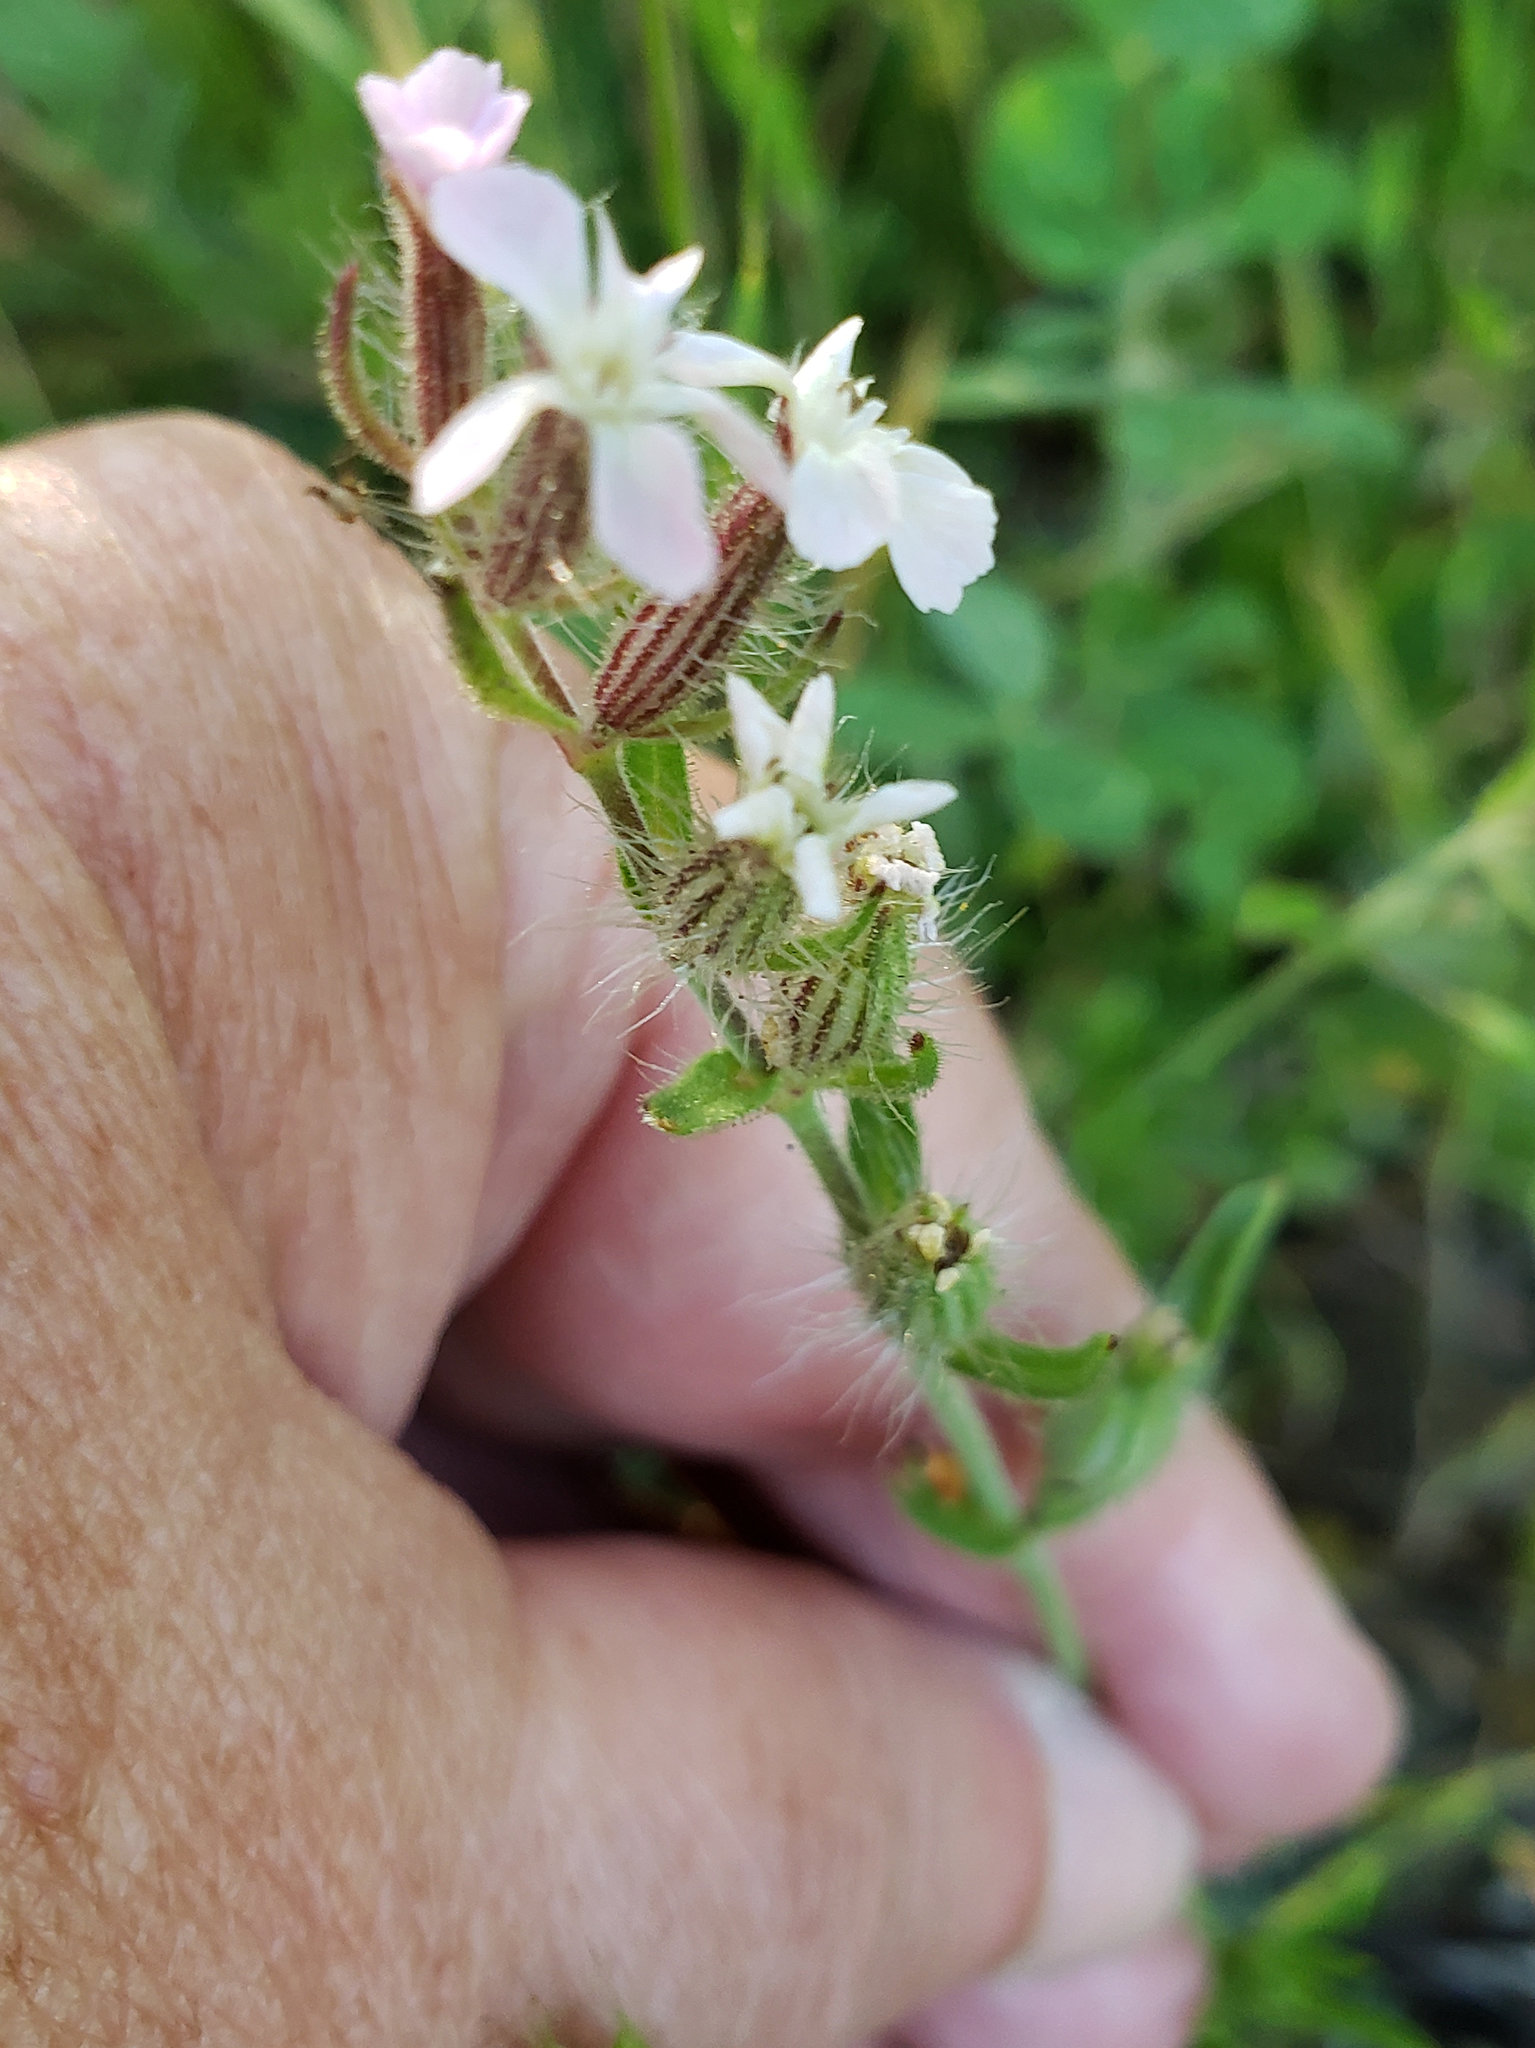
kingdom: Plantae
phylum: Tracheophyta
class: Magnoliopsida
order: Caryophyllales
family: Caryophyllaceae
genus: Silene
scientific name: Silene gallica
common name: Small-flowered catchfly
